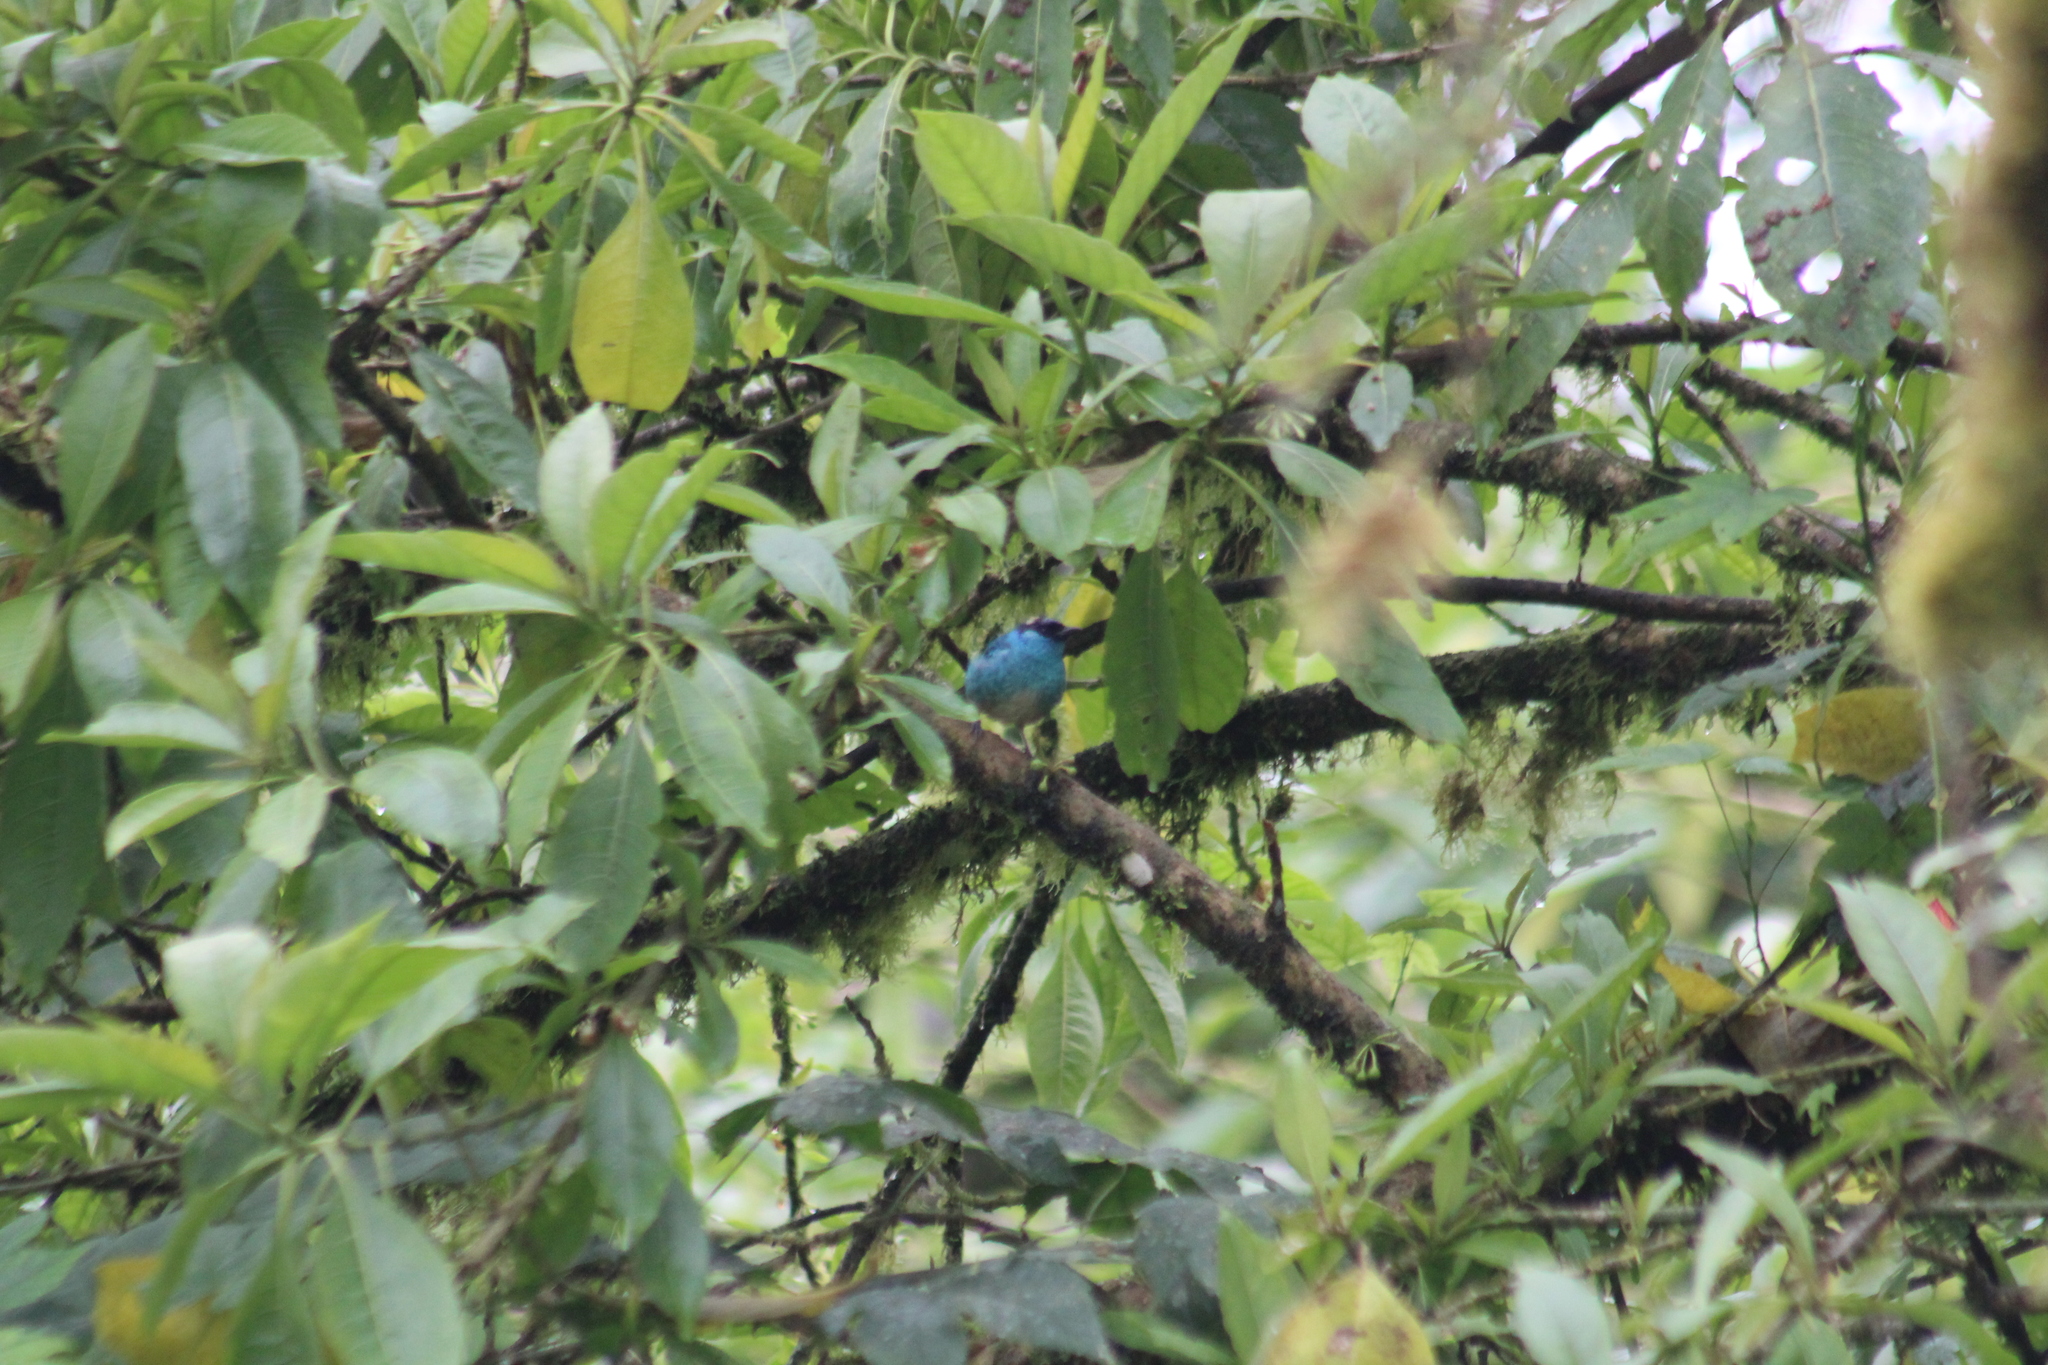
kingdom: Animalia
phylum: Chordata
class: Aves
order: Passeriformes
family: Thraupidae
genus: Chalcothraupis
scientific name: Chalcothraupis ruficervix
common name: Golden-naped tanager
